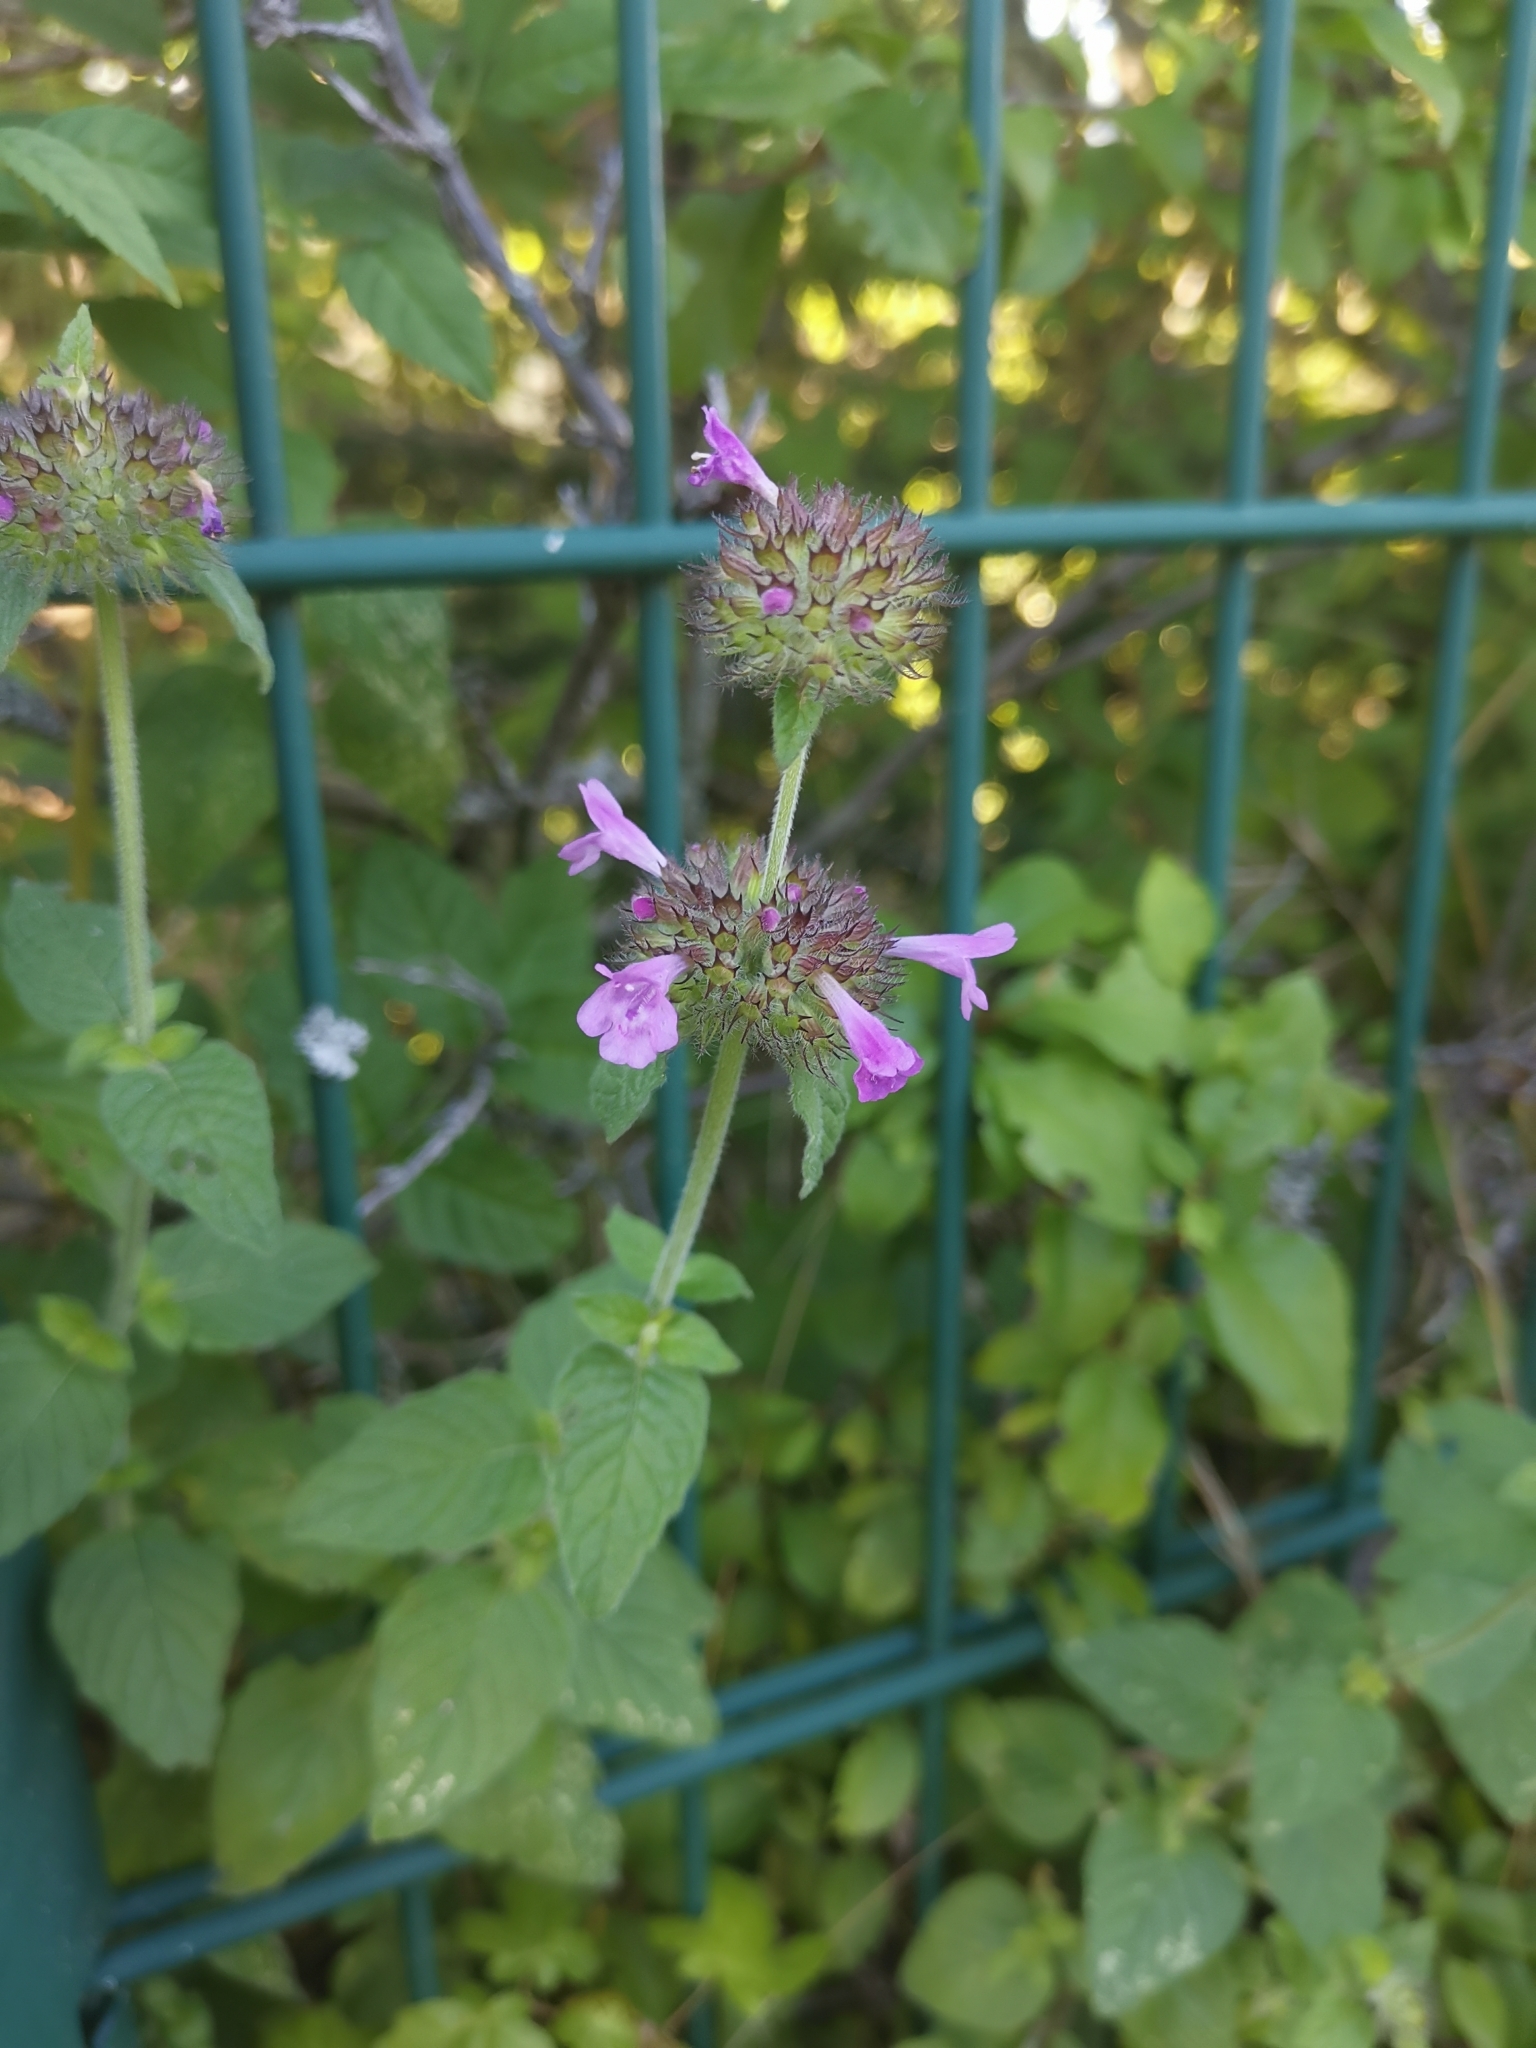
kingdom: Plantae
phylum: Tracheophyta
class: Magnoliopsida
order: Lamiales
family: Lamiaceae
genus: Clinopodium
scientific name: Clinopodium vulgare
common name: Wild basil
